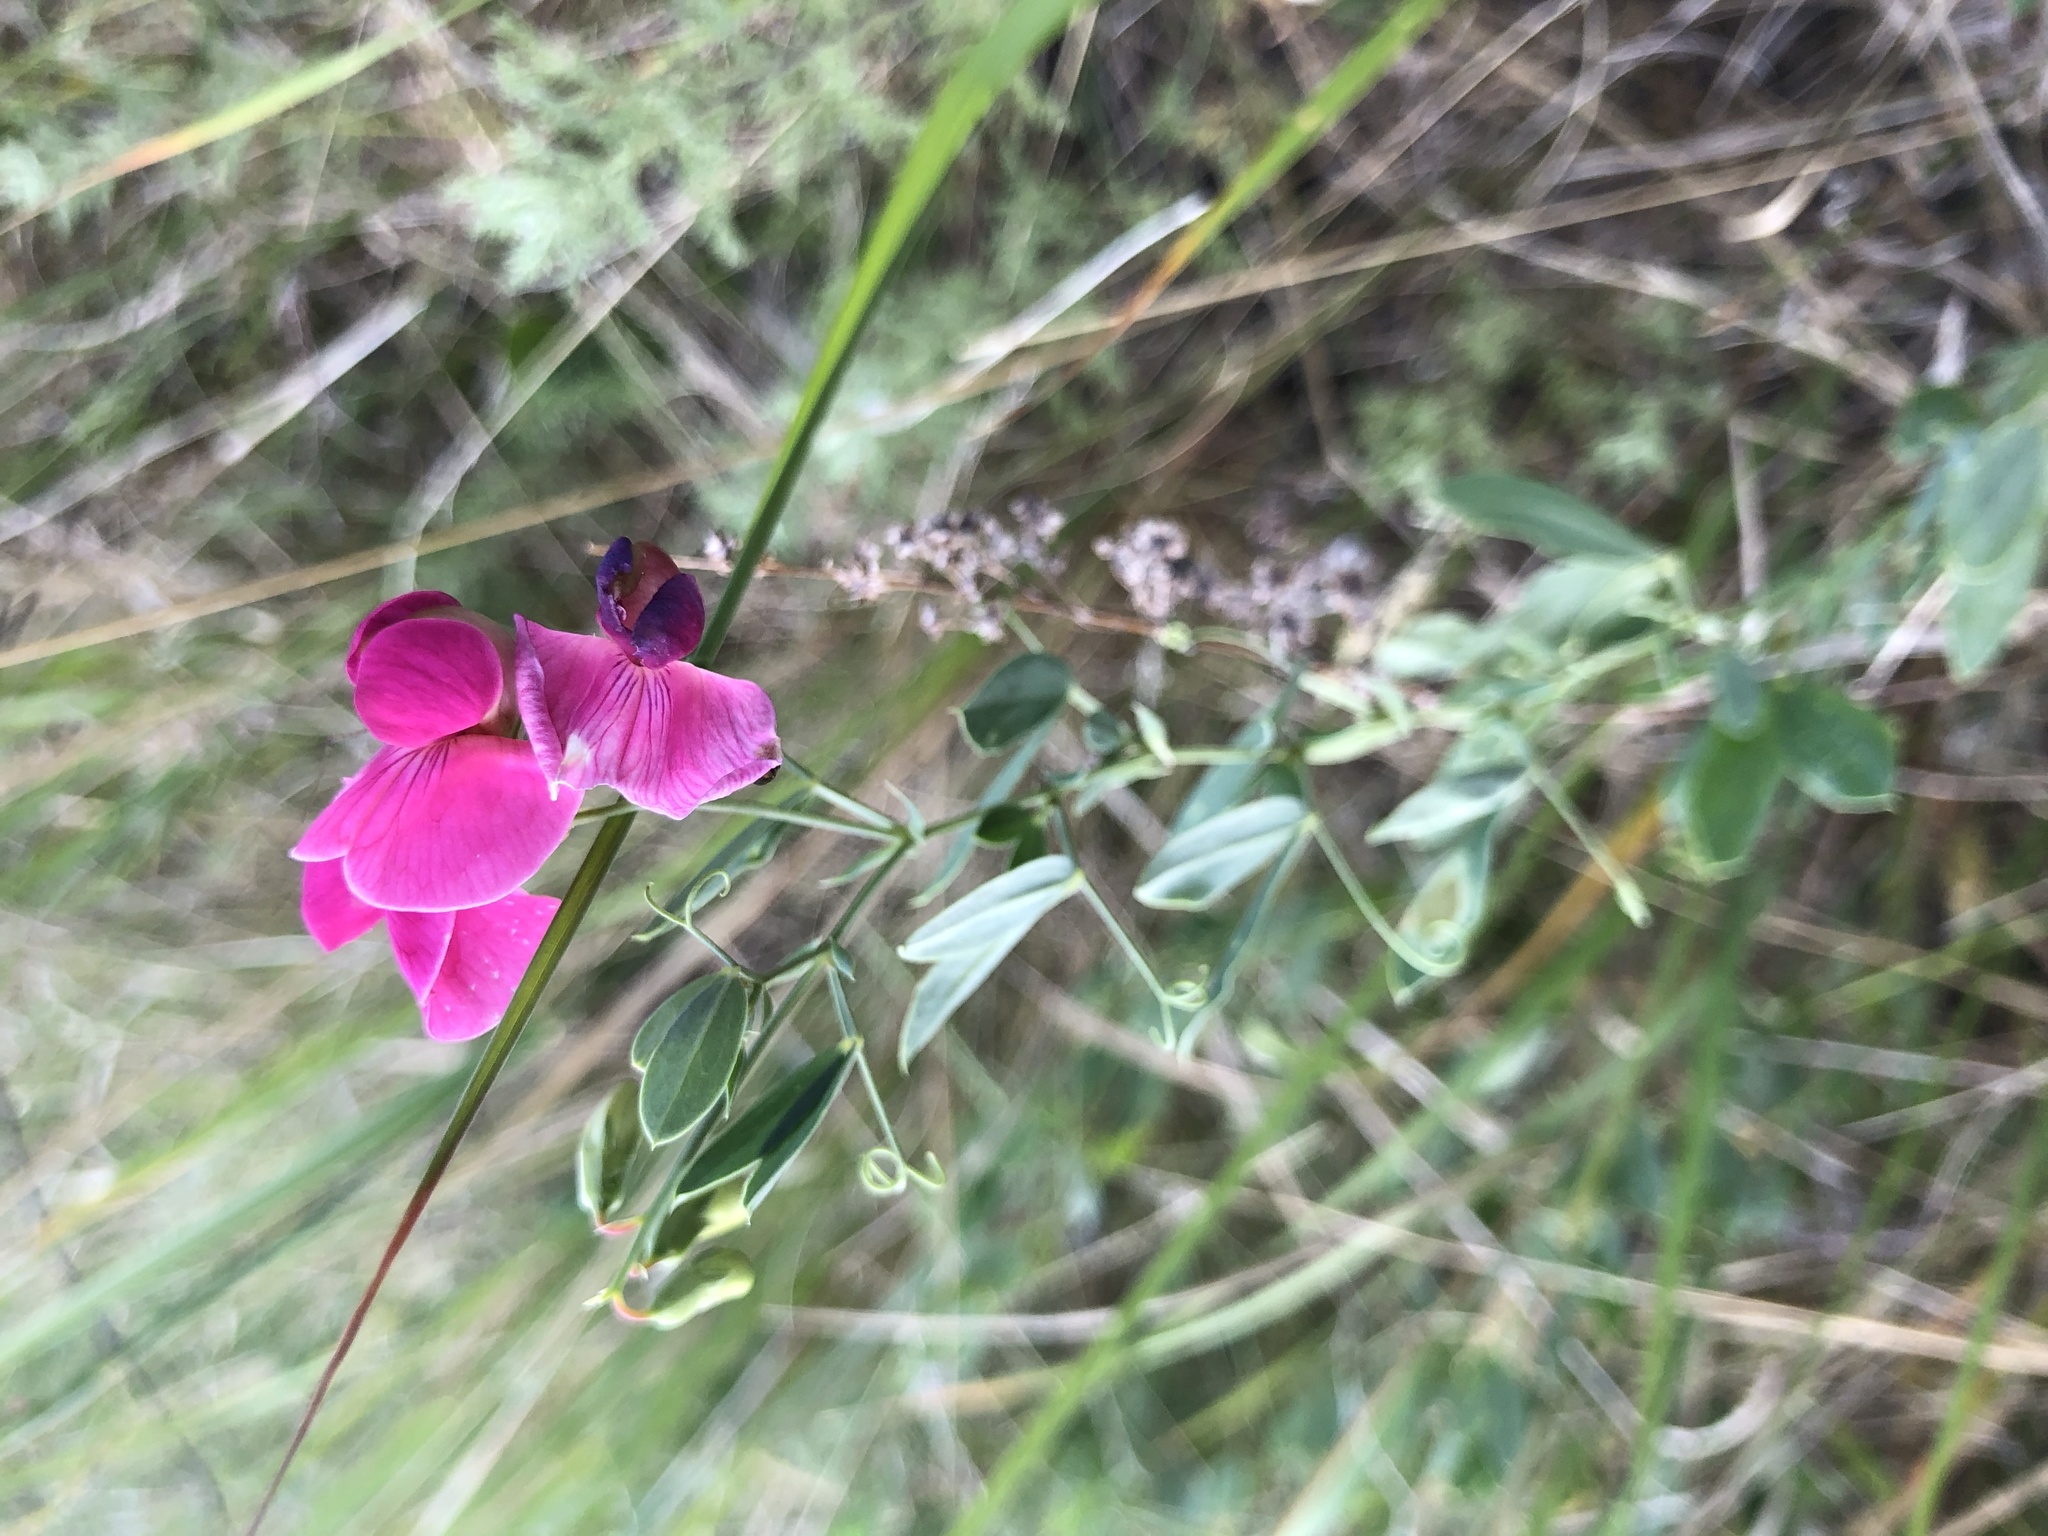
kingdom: Plantae
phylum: Tracheophyta
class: Magnoliopsida
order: Fabales
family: Fabaceae
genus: Lathyrus
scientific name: Lathyrus tuberosus
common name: Tuberous pea
